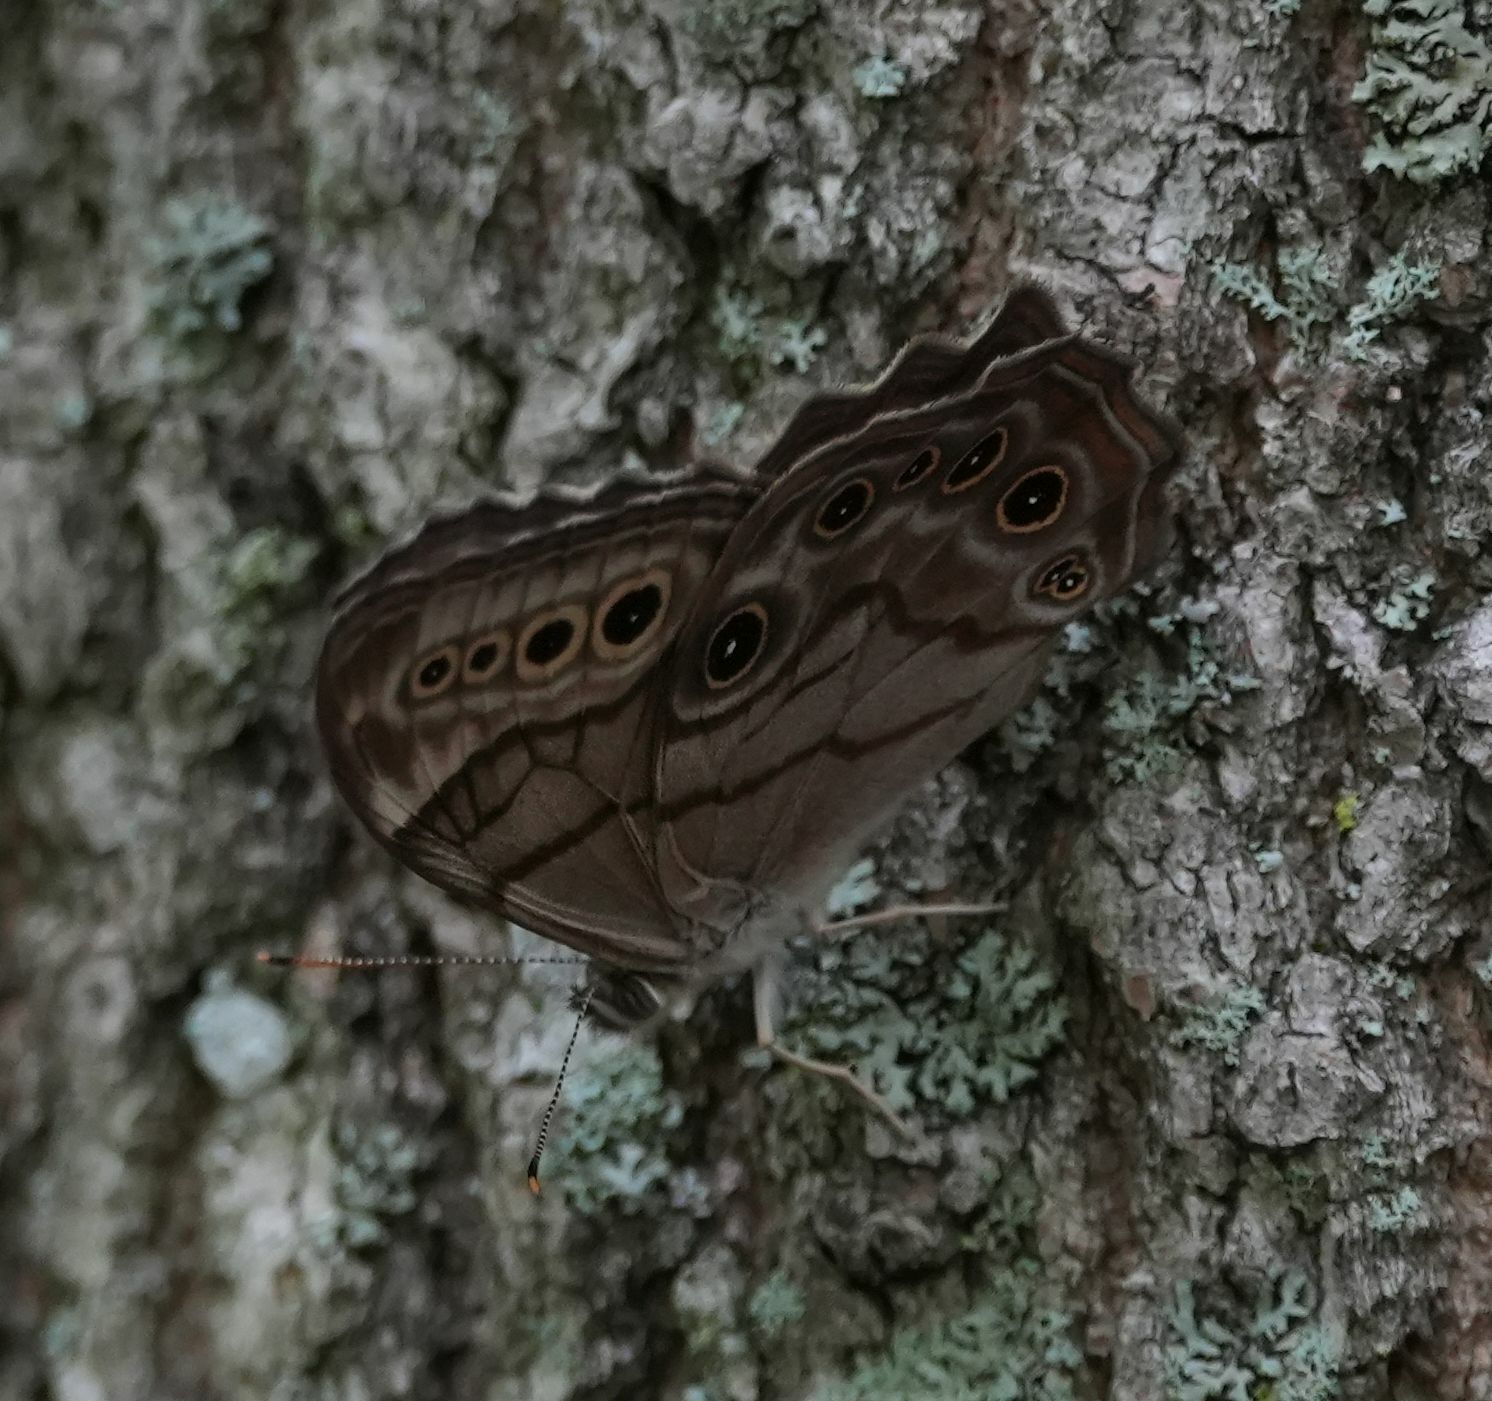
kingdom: Animalia
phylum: Arthropoda
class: Insecta
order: Lepidoptera
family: Nymphalidae
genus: Lethe
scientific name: Lethe anthedon
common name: Northern pearly-eye
